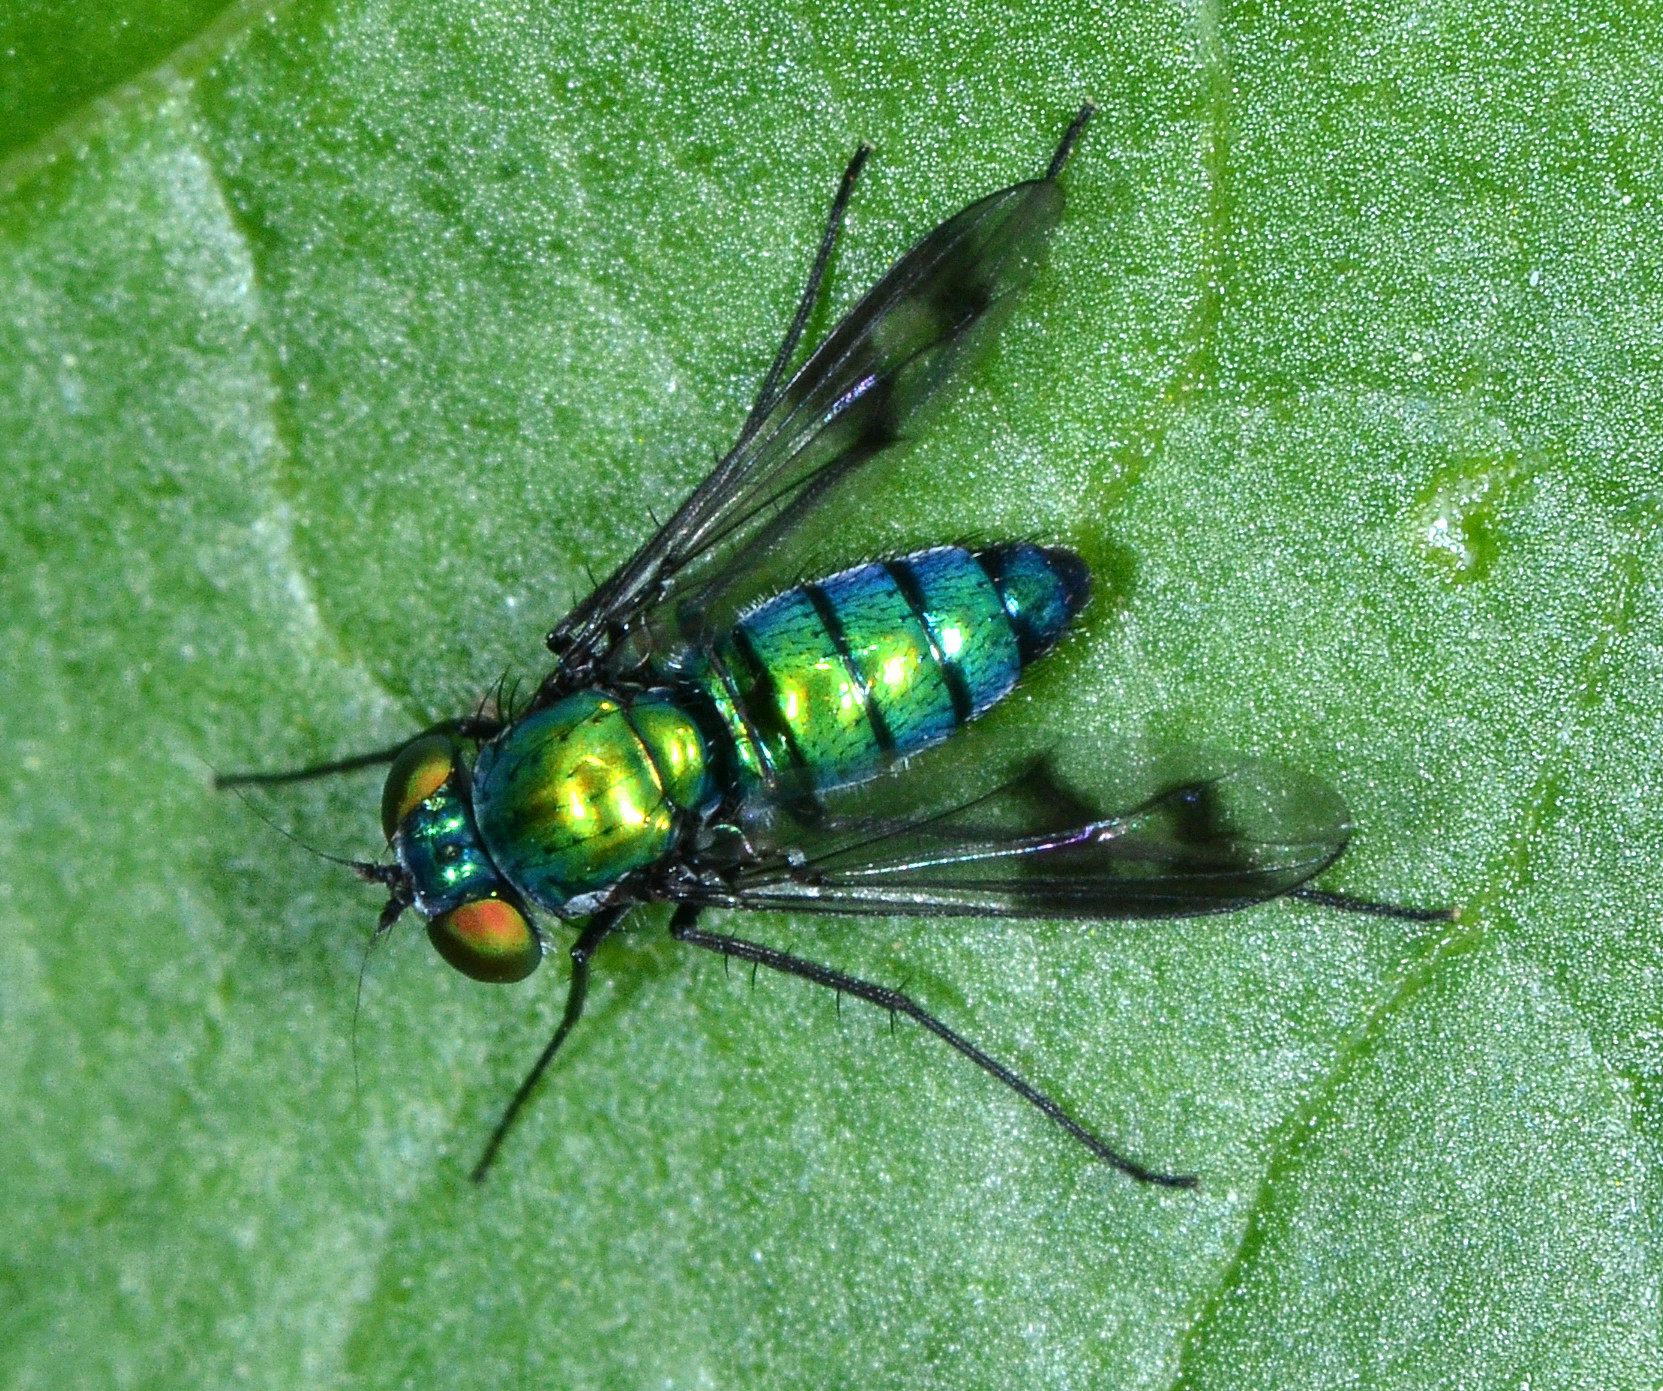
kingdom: Animalia
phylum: Arthropoda
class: Insecta
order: Diptera
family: Dolichopodidae
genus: Condylostylus
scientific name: Condylostylus occidentalis
